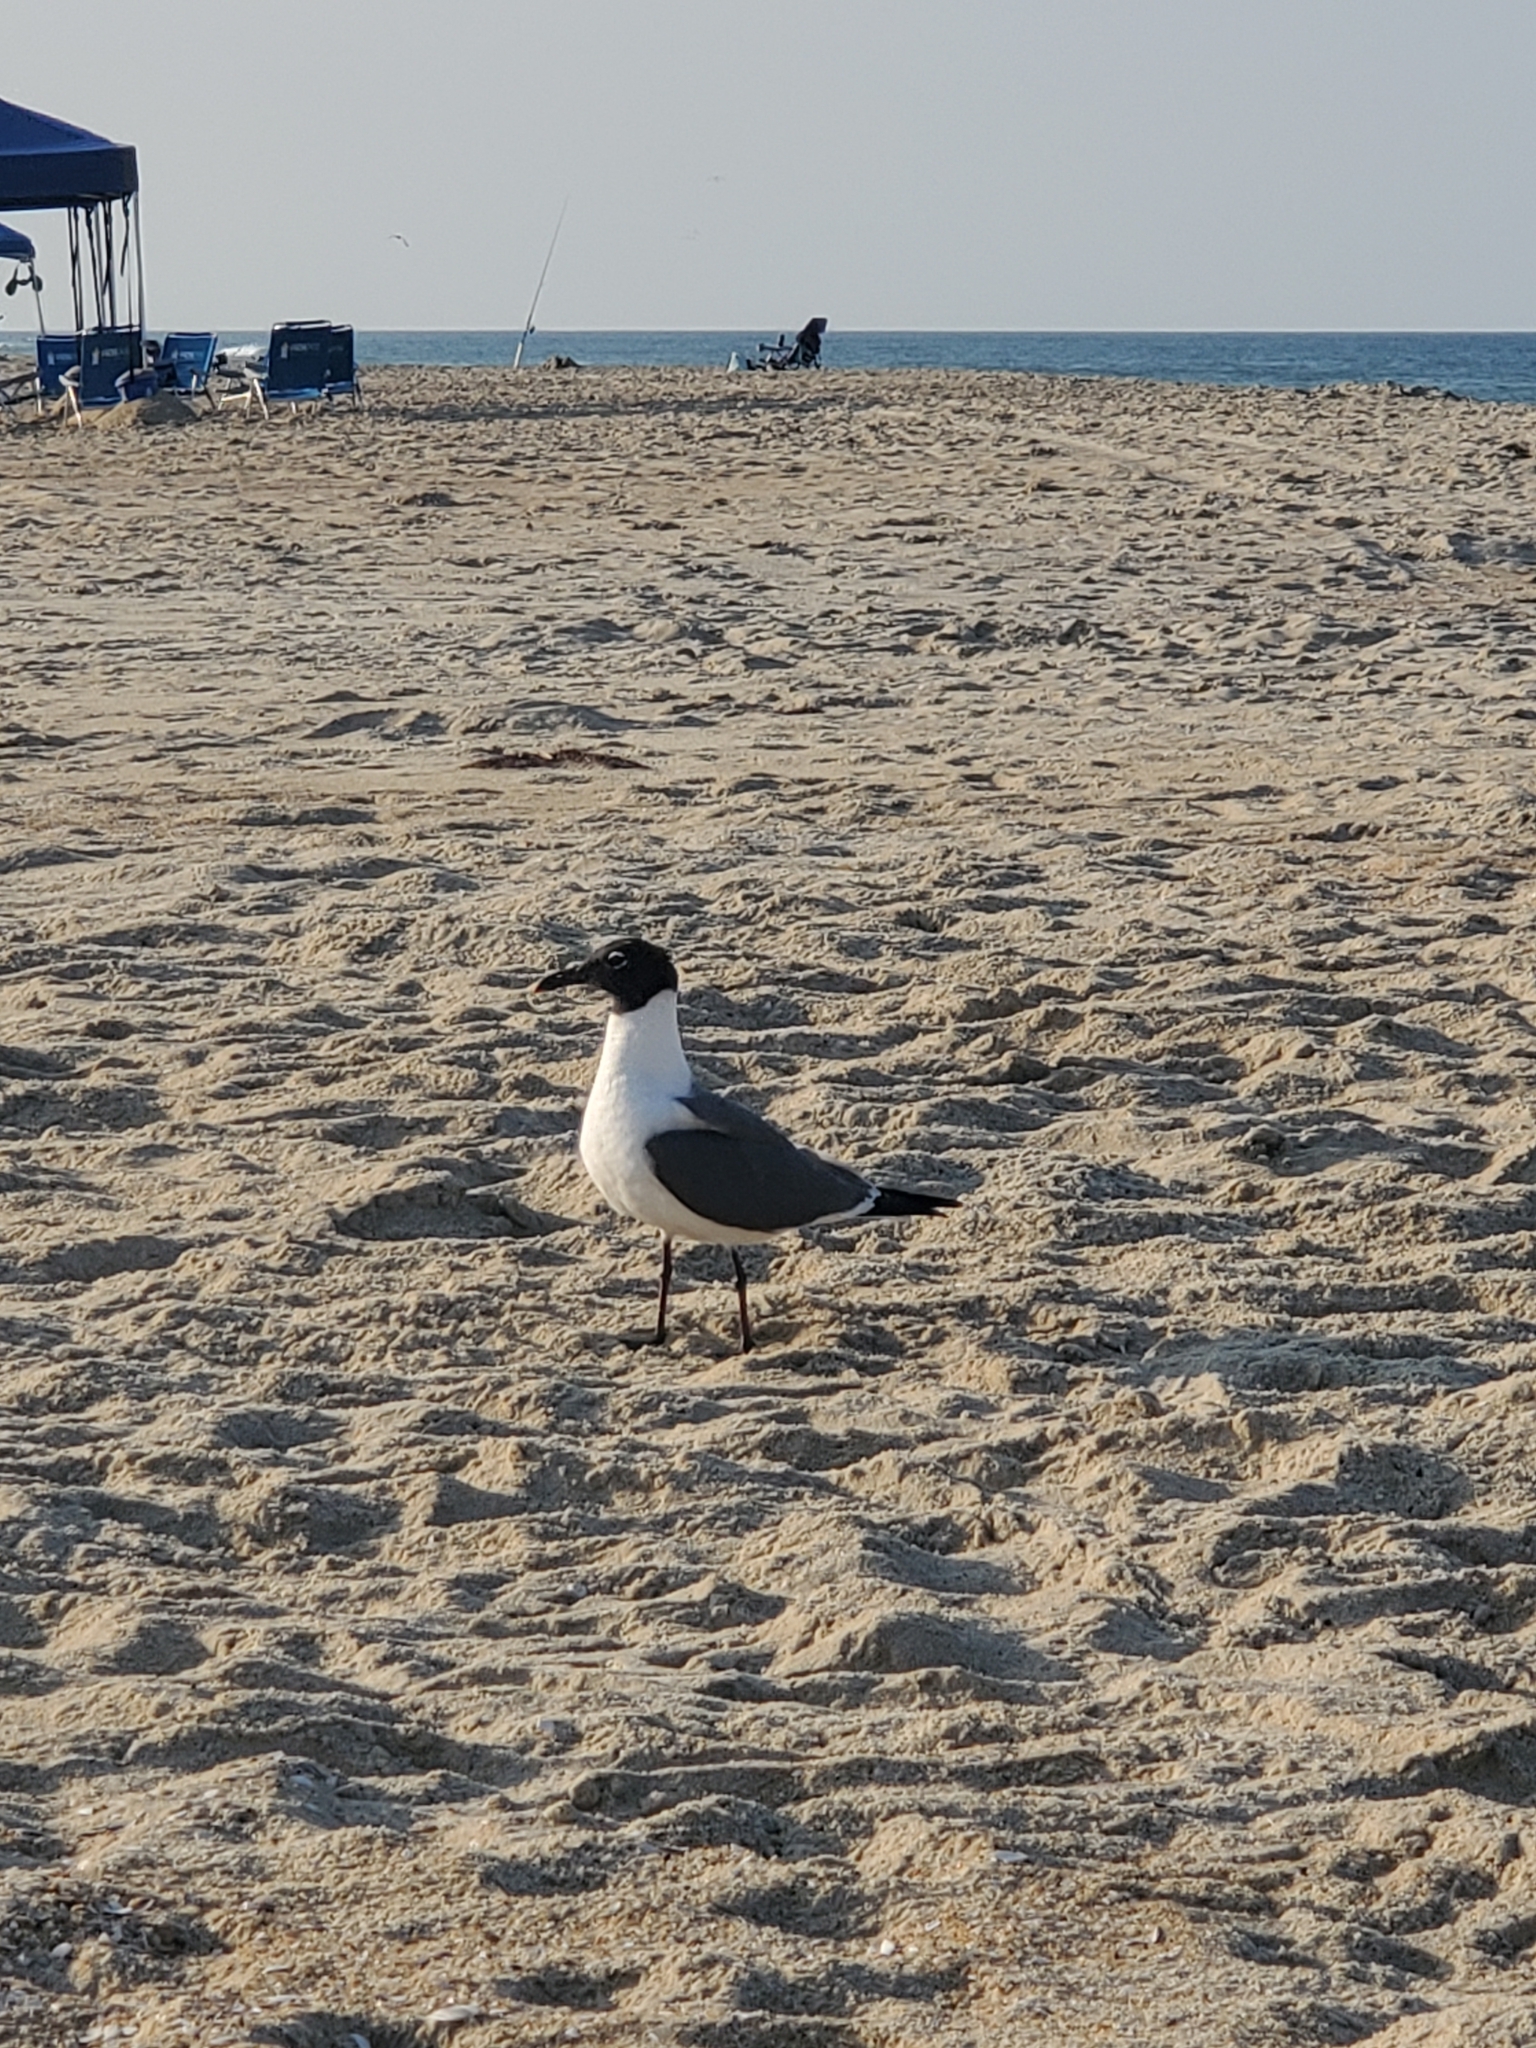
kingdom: Animalia
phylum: Chordata
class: Aves
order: Charadriiformes
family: Laridae
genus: Leucophaeus
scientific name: Leucophaeus atricilla
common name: Laughing gull
